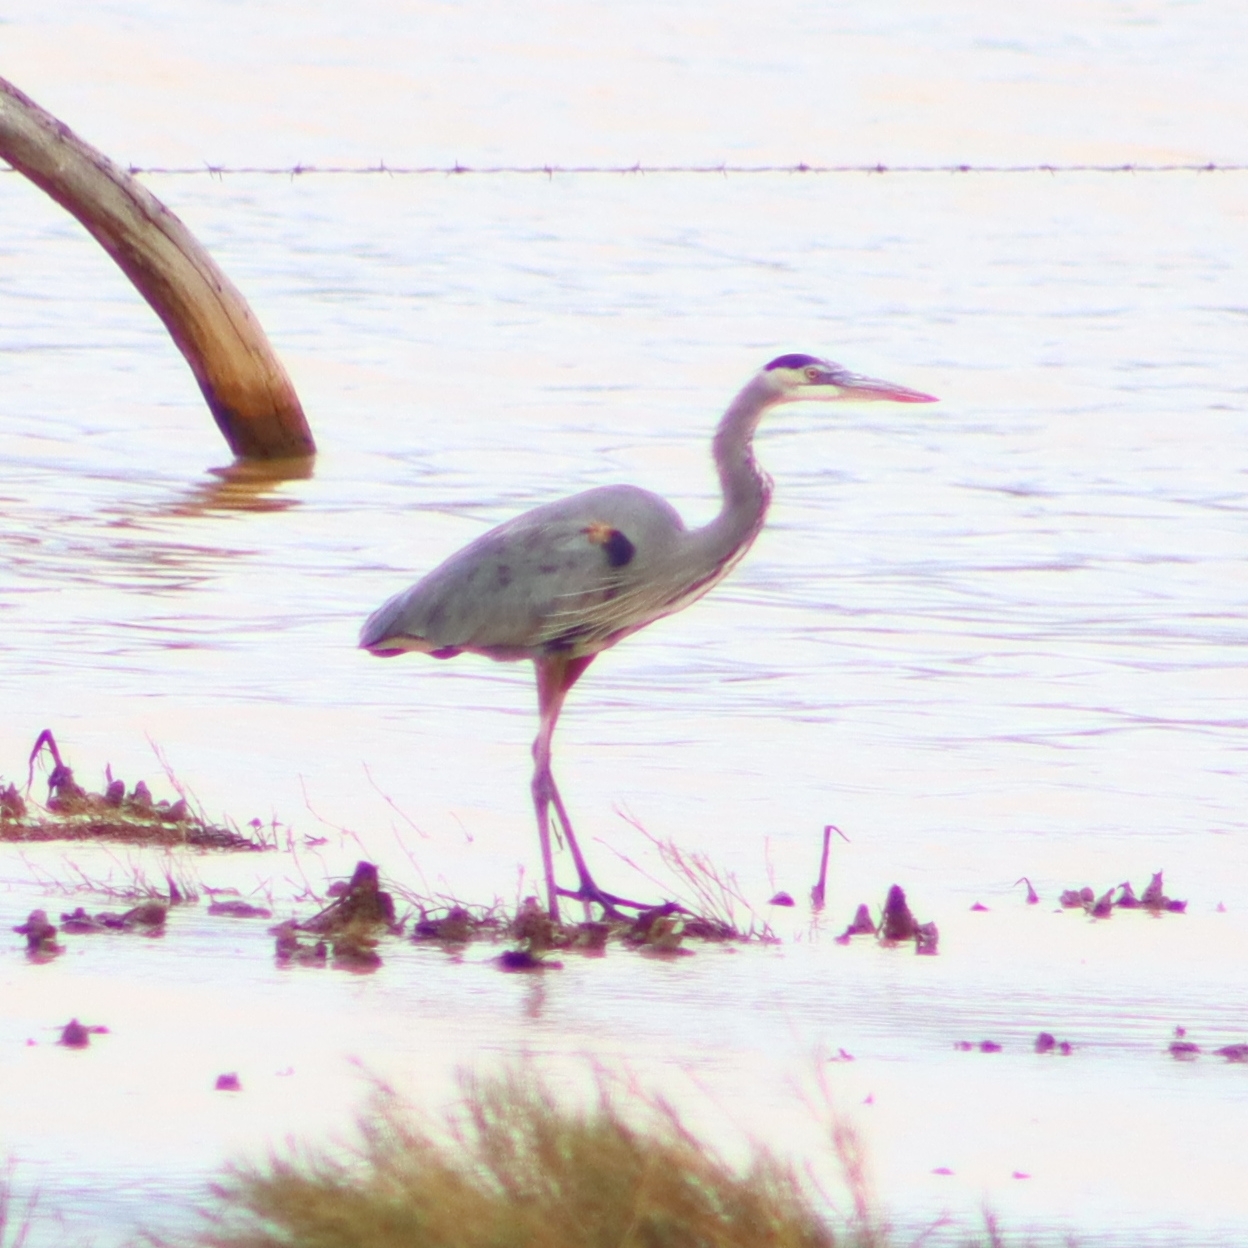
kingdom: Animalia
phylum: Chordata
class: Aves
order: Pelecaniformes
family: Ardeidae
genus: Ardea
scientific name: Ardea herodias
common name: Great blue heron
